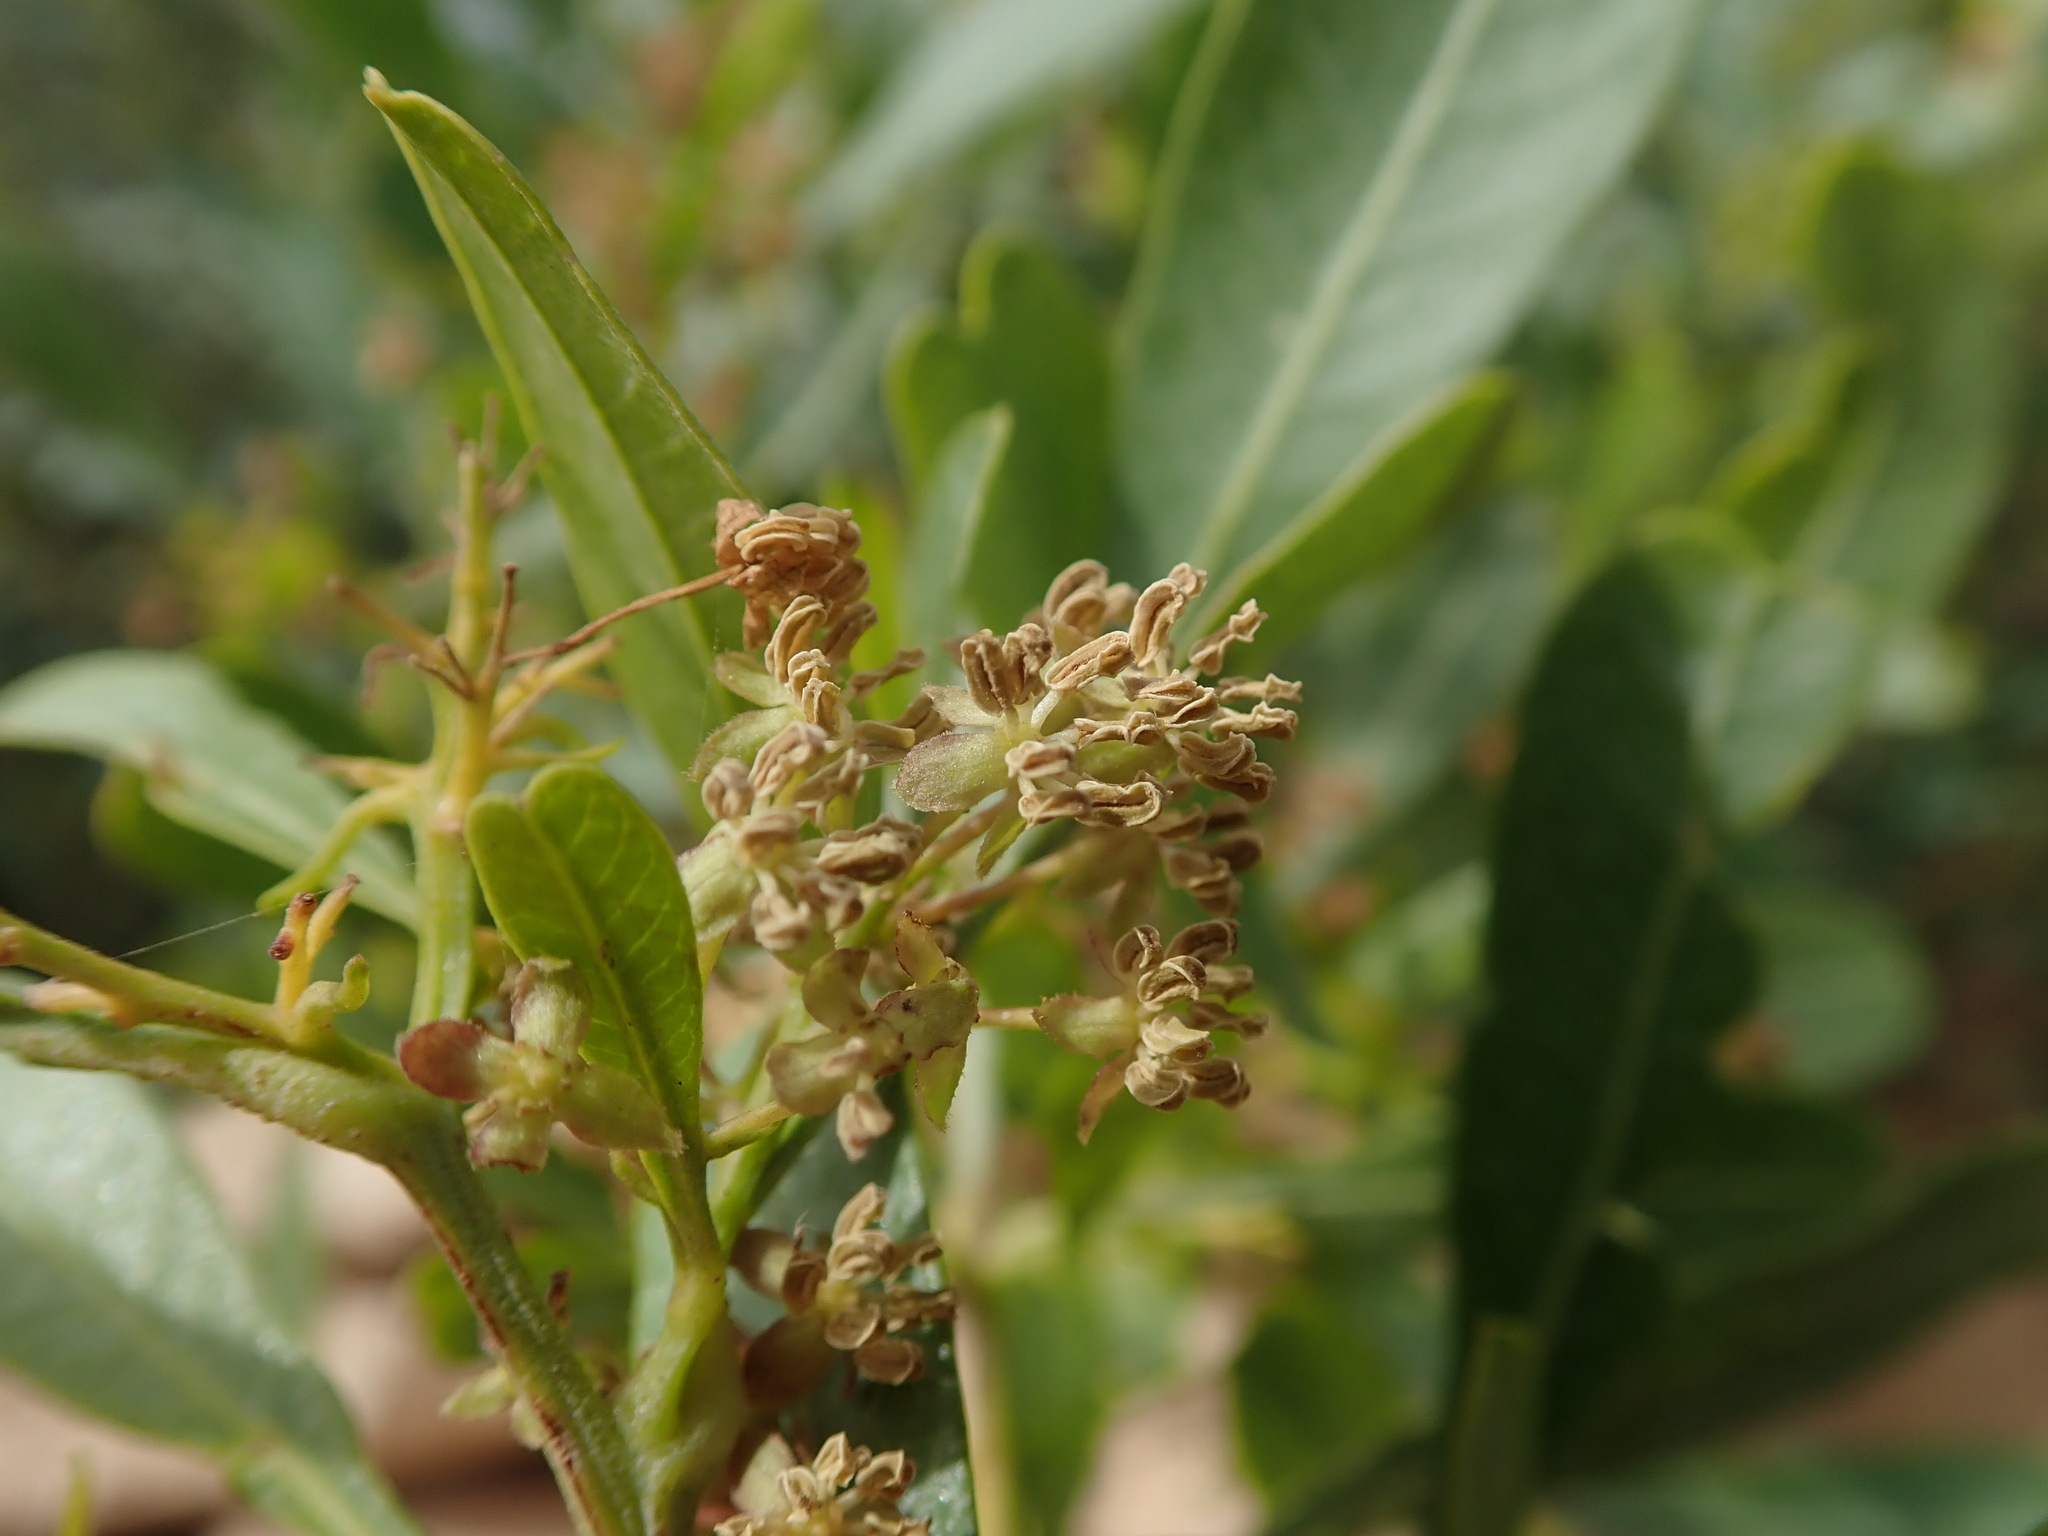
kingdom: Plantae
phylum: Tracheophyta
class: Magnoliopsida
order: Sapindales
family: Sapindaceae
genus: Dodonaea
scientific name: Dodonaea viscosa
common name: Hopbush
